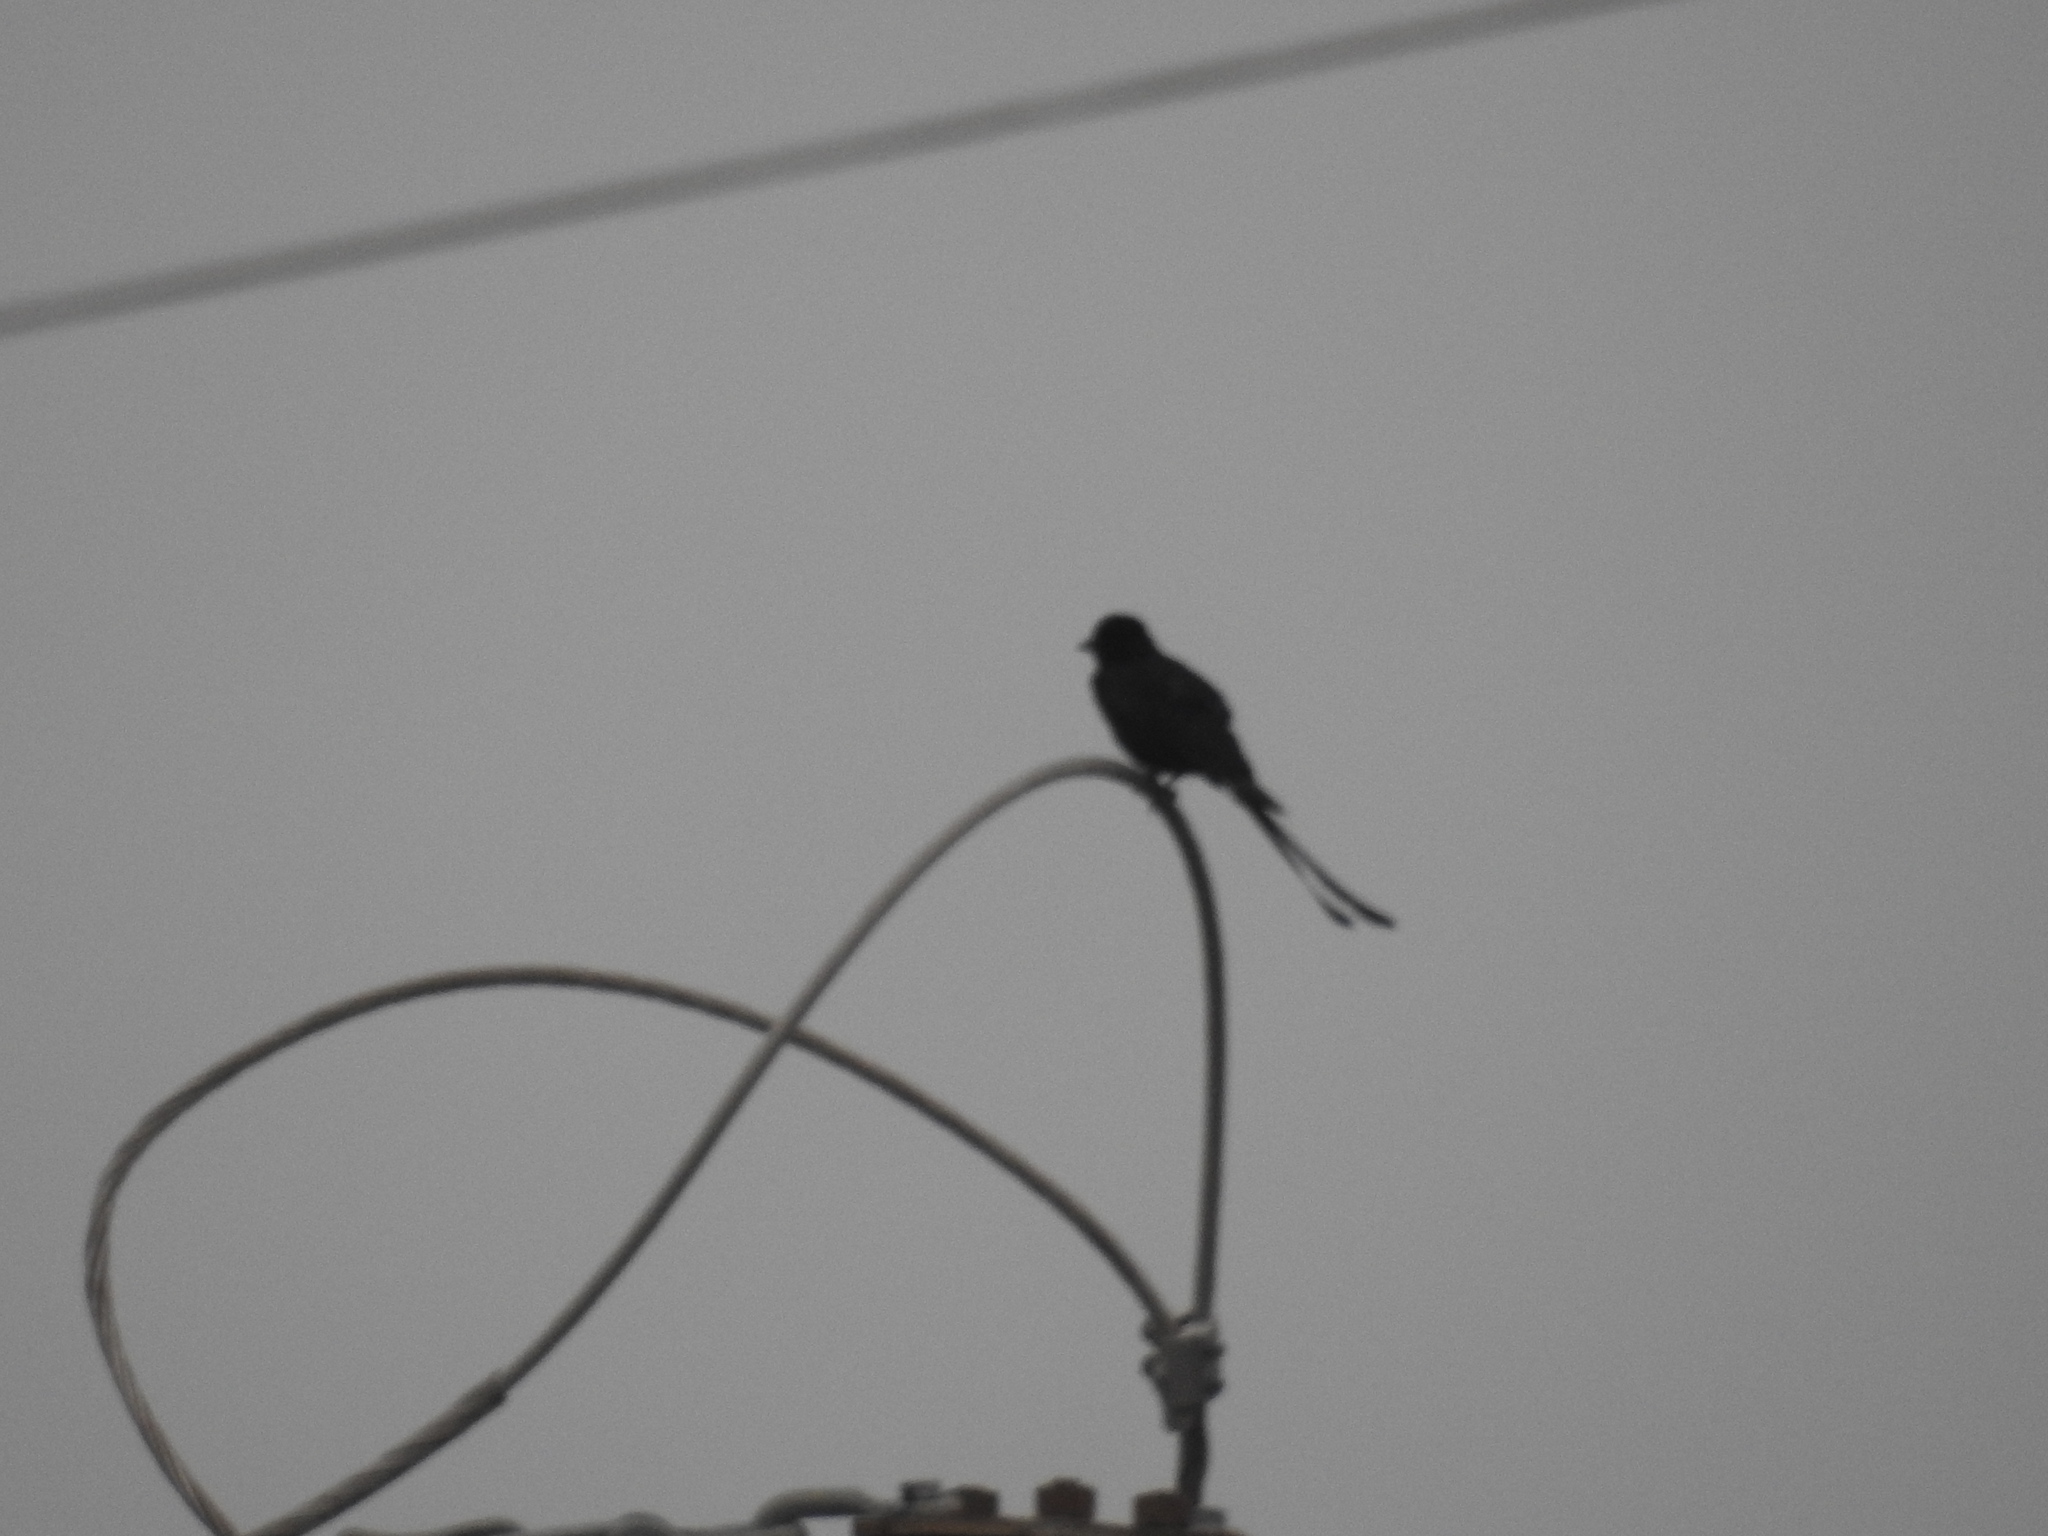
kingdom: Animalia
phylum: Chordata
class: Aves
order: Passeriformes
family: Dicruridae
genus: Dicrurus
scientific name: Dicrurus macrocercus
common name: Black drongo
